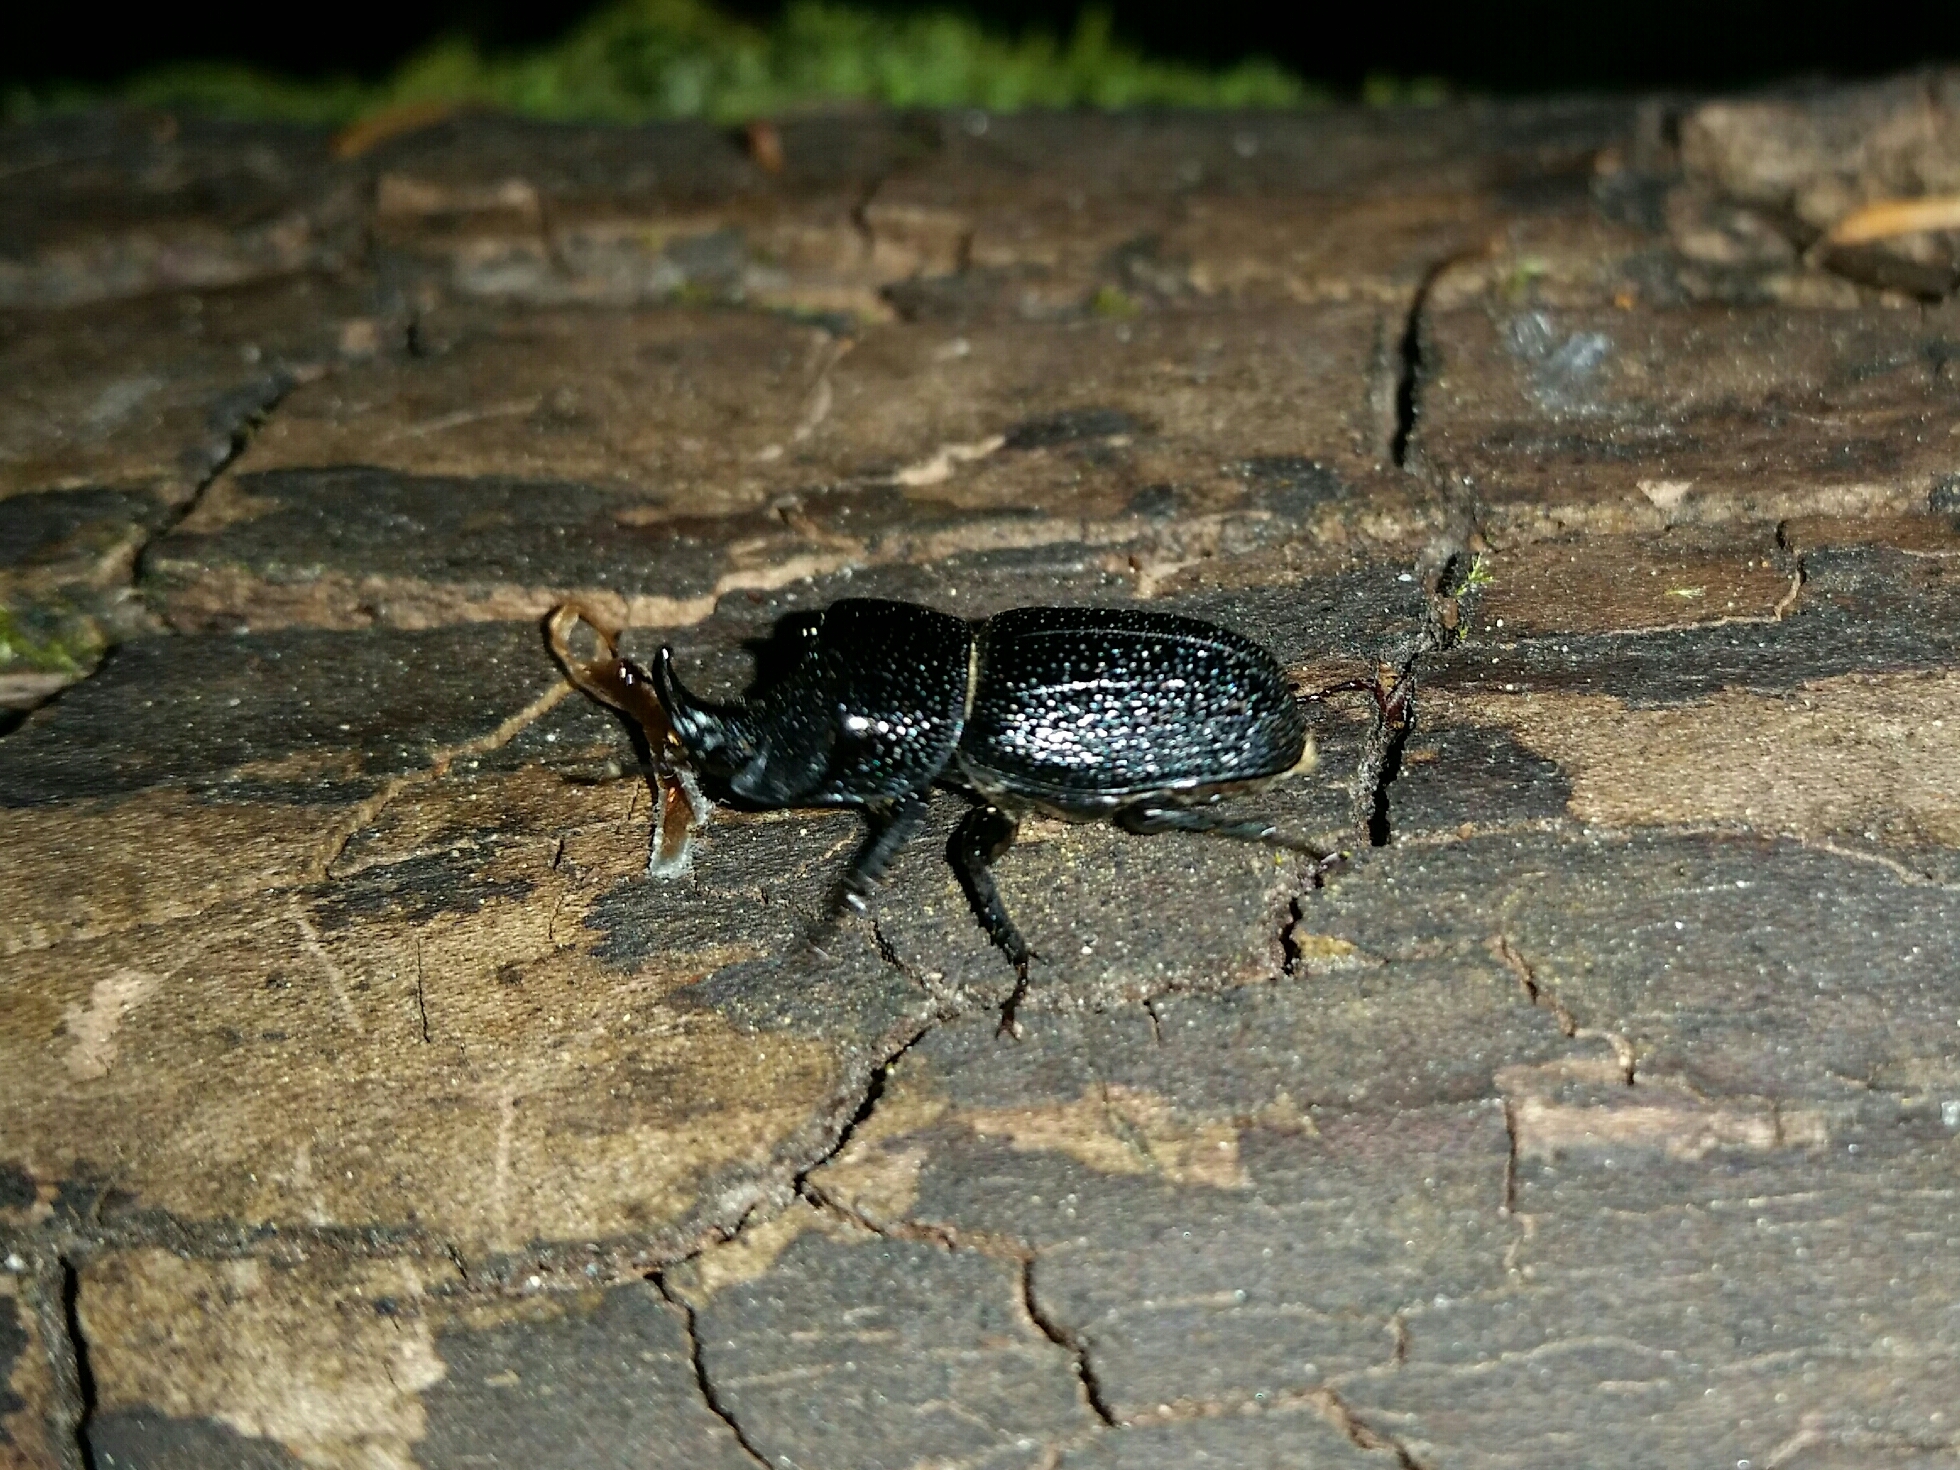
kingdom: Animalia
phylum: Arthropoda
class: Insecta
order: Coleoptera
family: Lucanidae
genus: Sinodendron
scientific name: Sinodendron rugosum
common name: Rugose stag beelte
